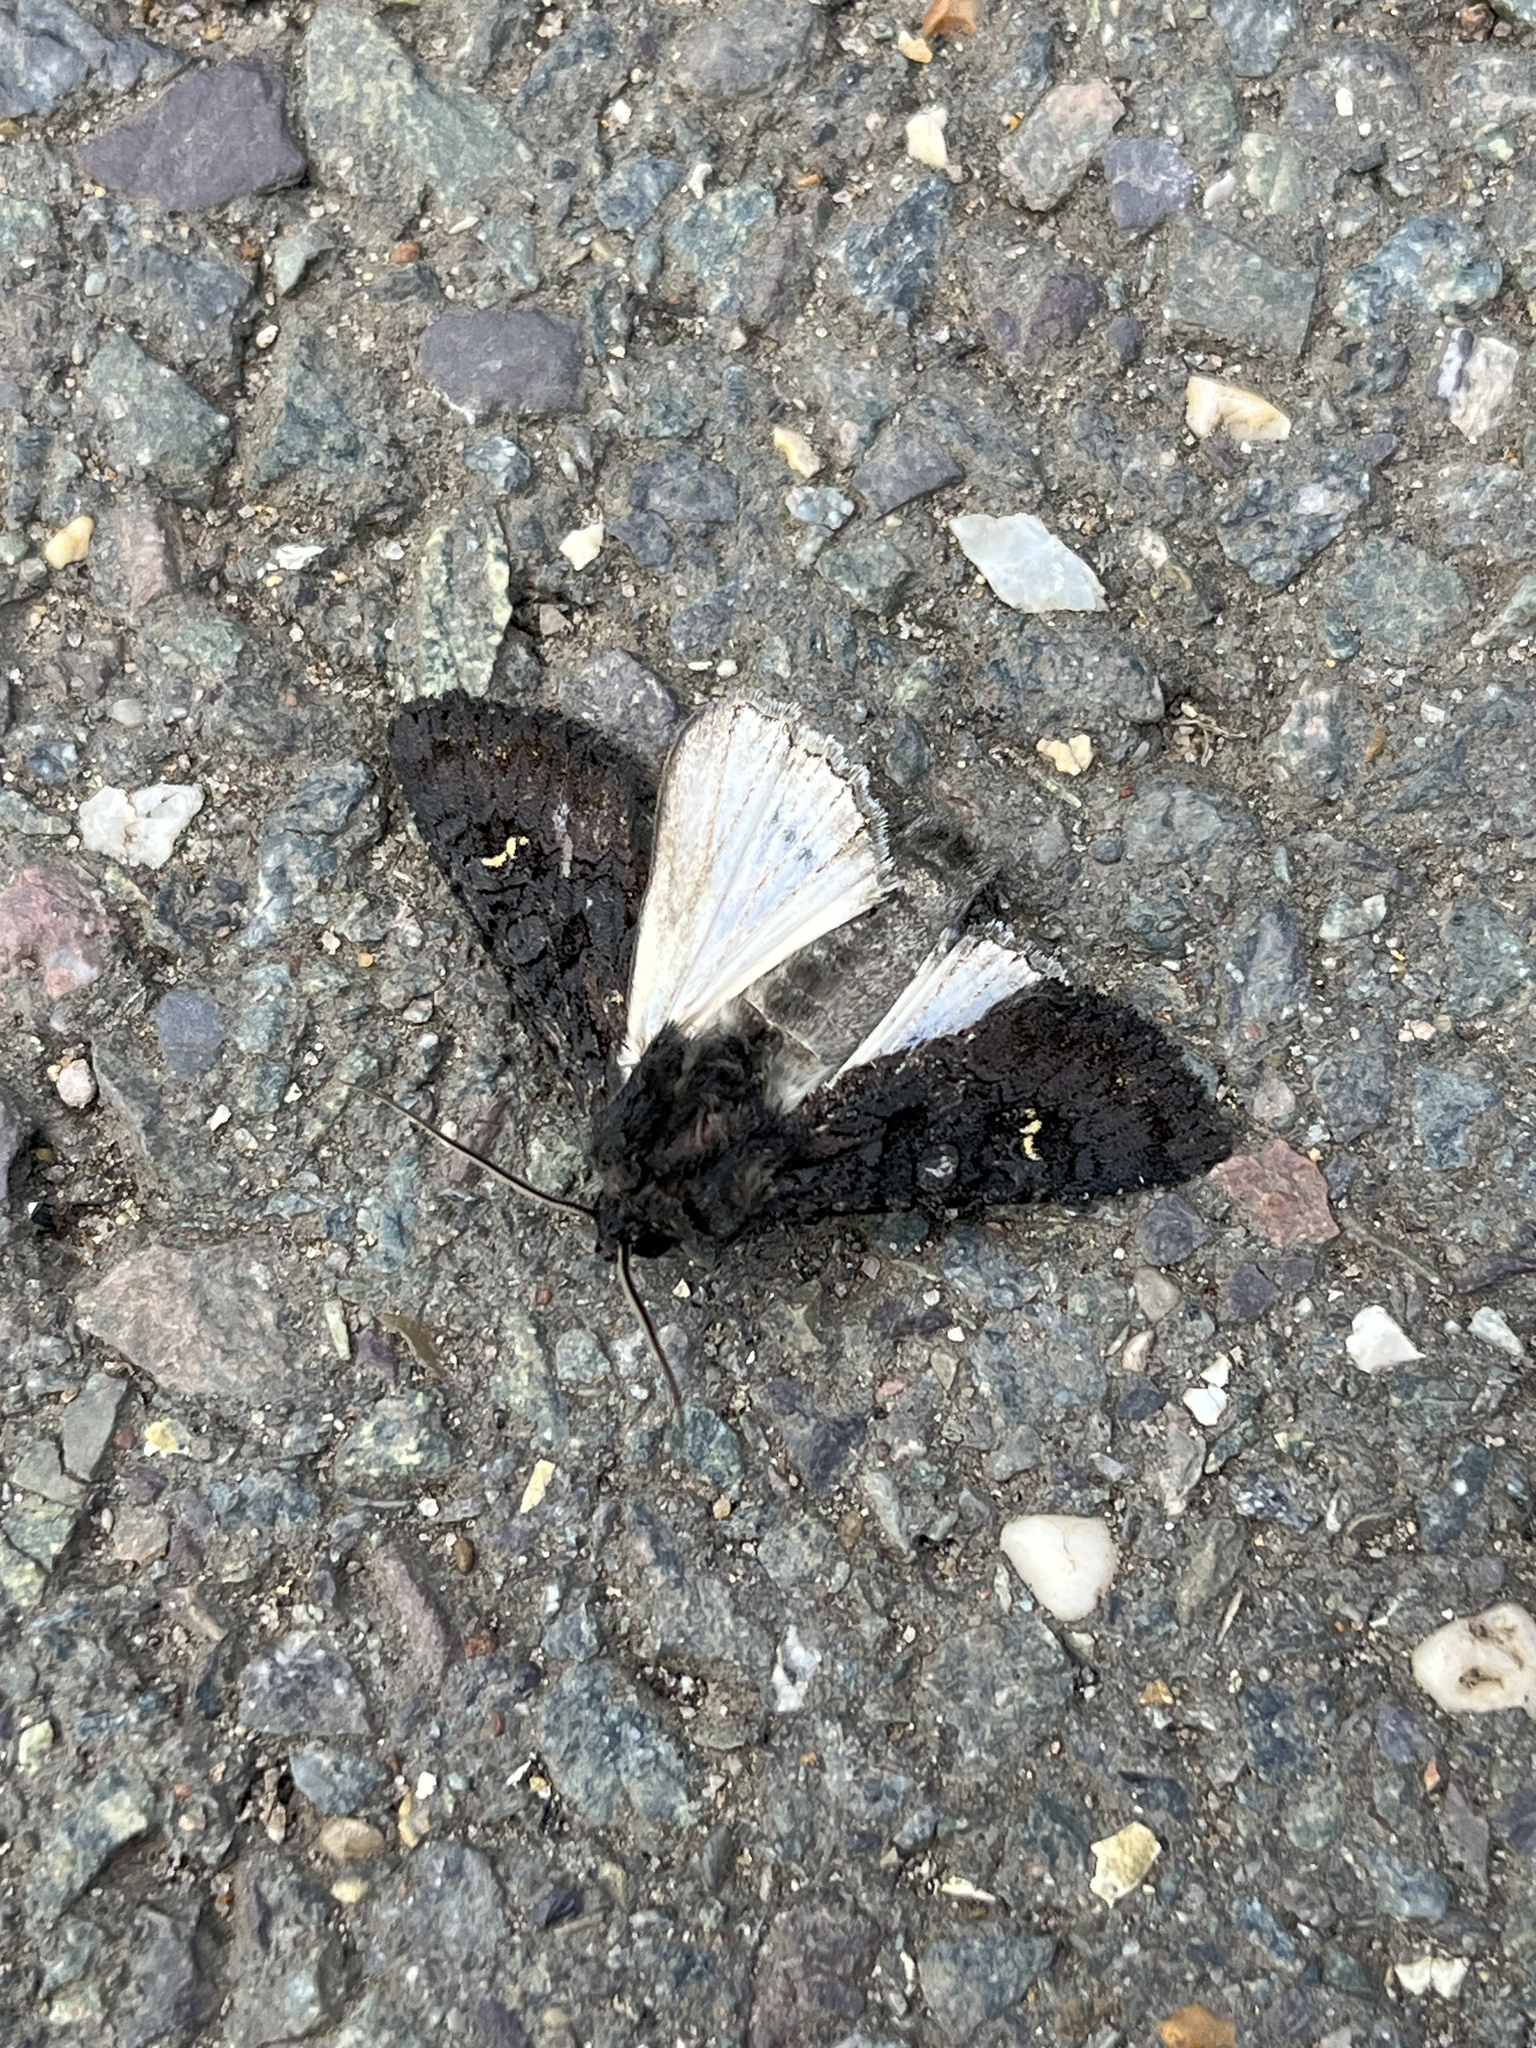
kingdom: Animalia
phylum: Arthropoda
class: Insecta
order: Lepidoptera
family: Noctuidae
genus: Aporophyla
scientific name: Aporophyla nigra
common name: Black rustic
